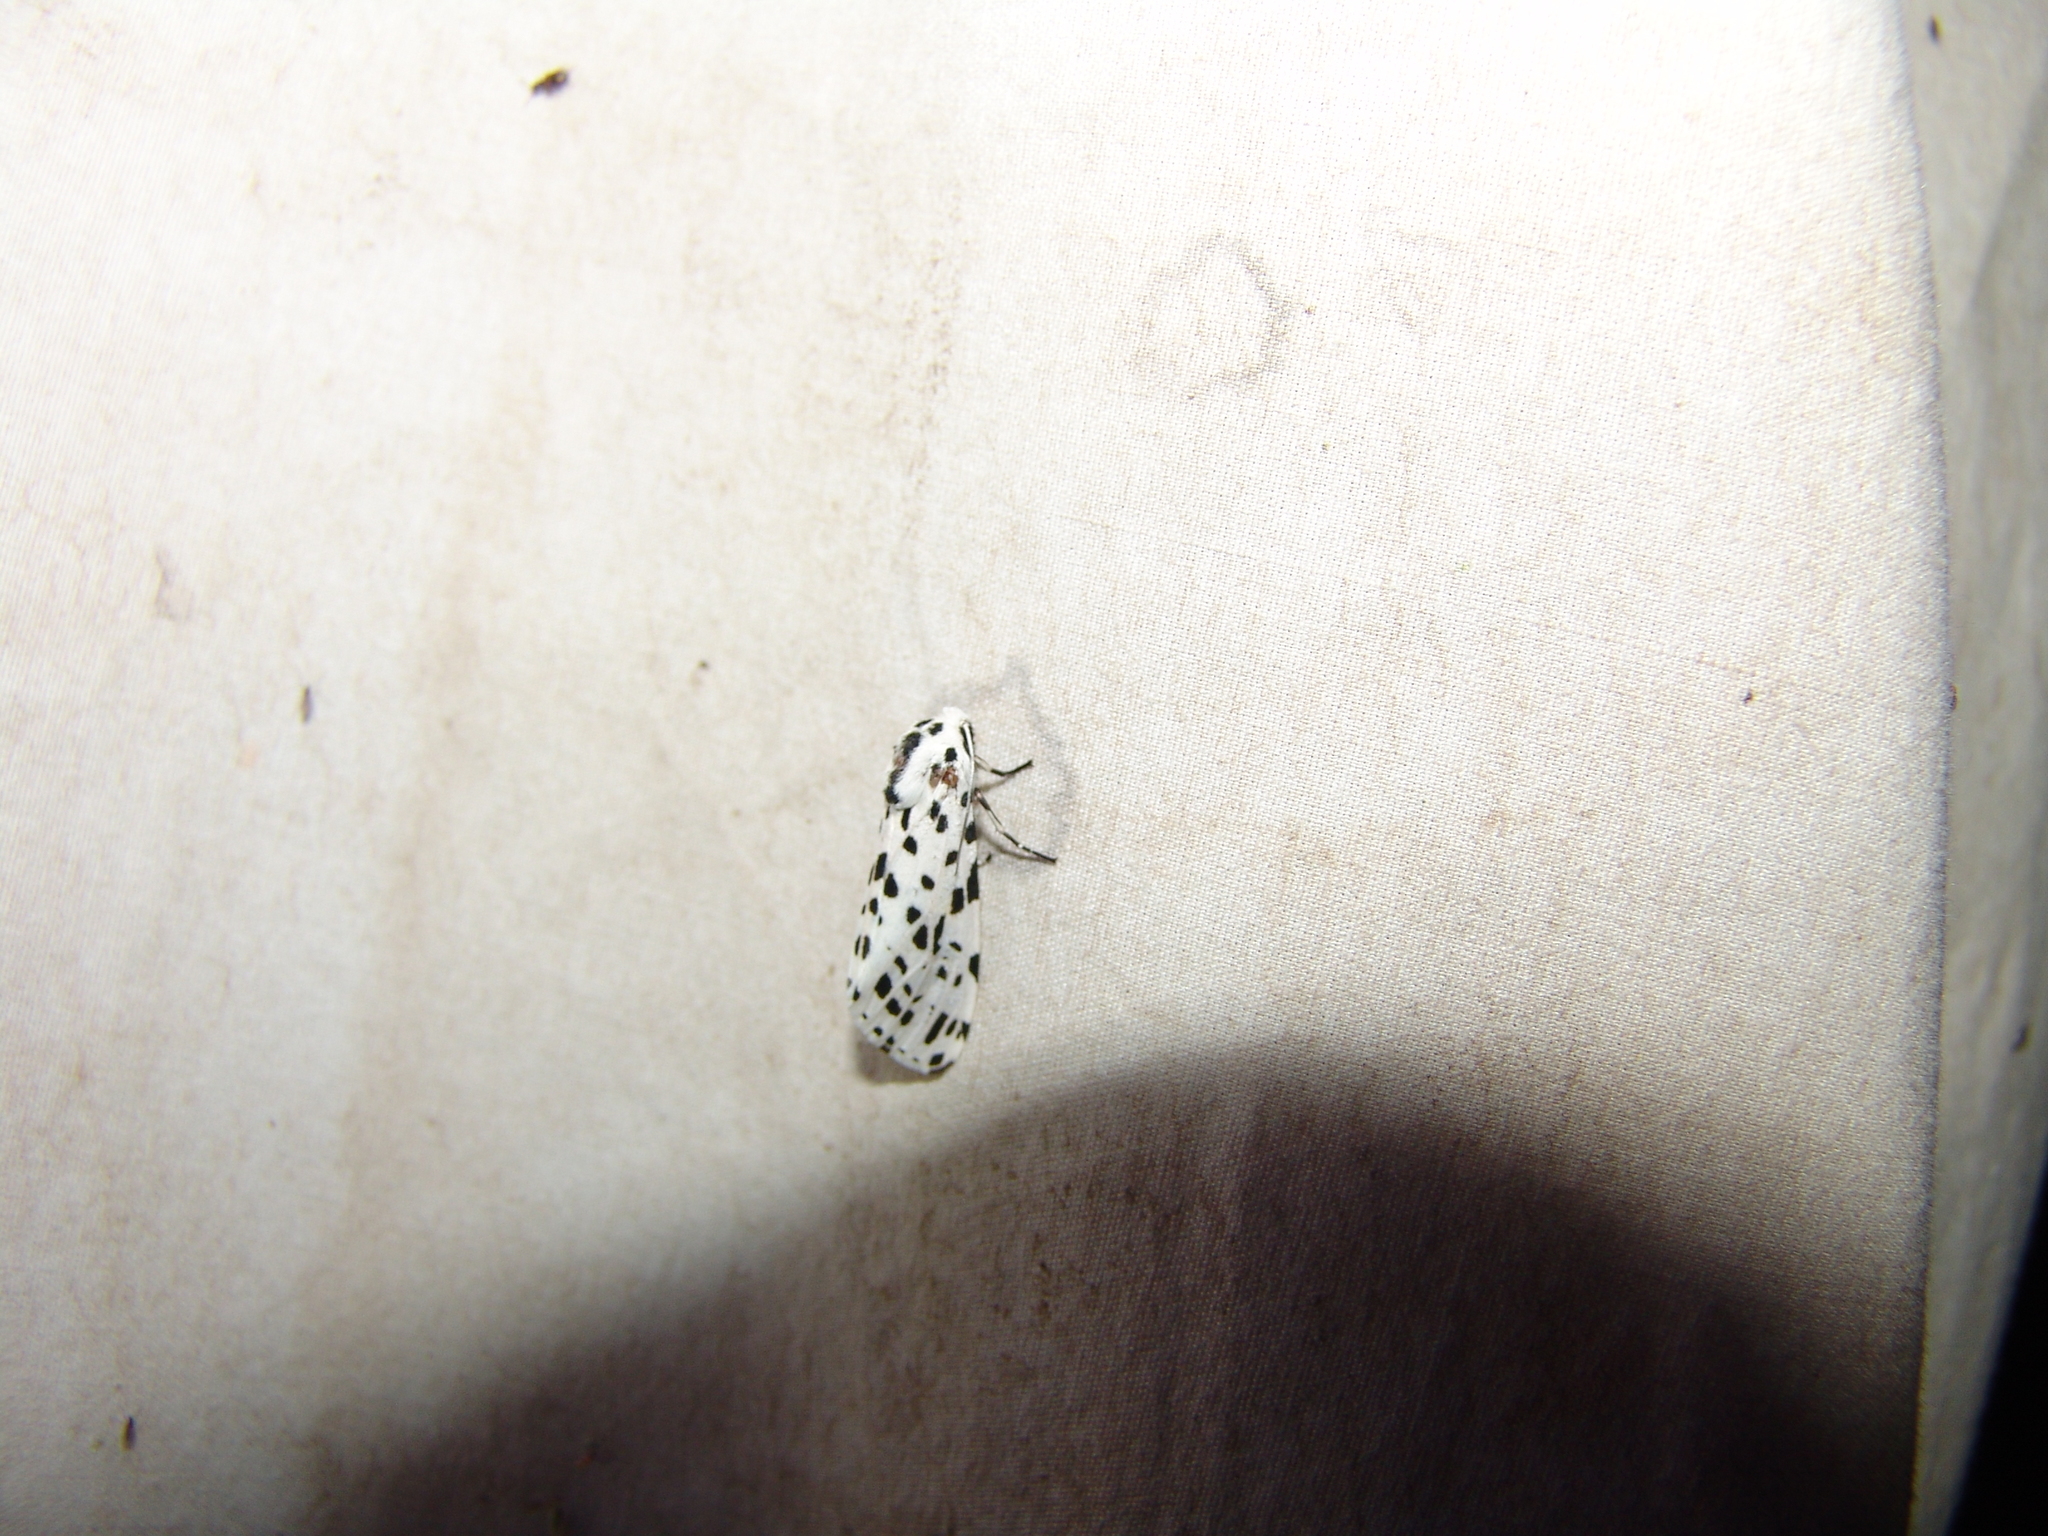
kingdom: Animalia
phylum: Arthropoda
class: Insecta
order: Lepidoptera
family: Erebidae
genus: Hypercompe
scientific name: Hypercompe permaculata
